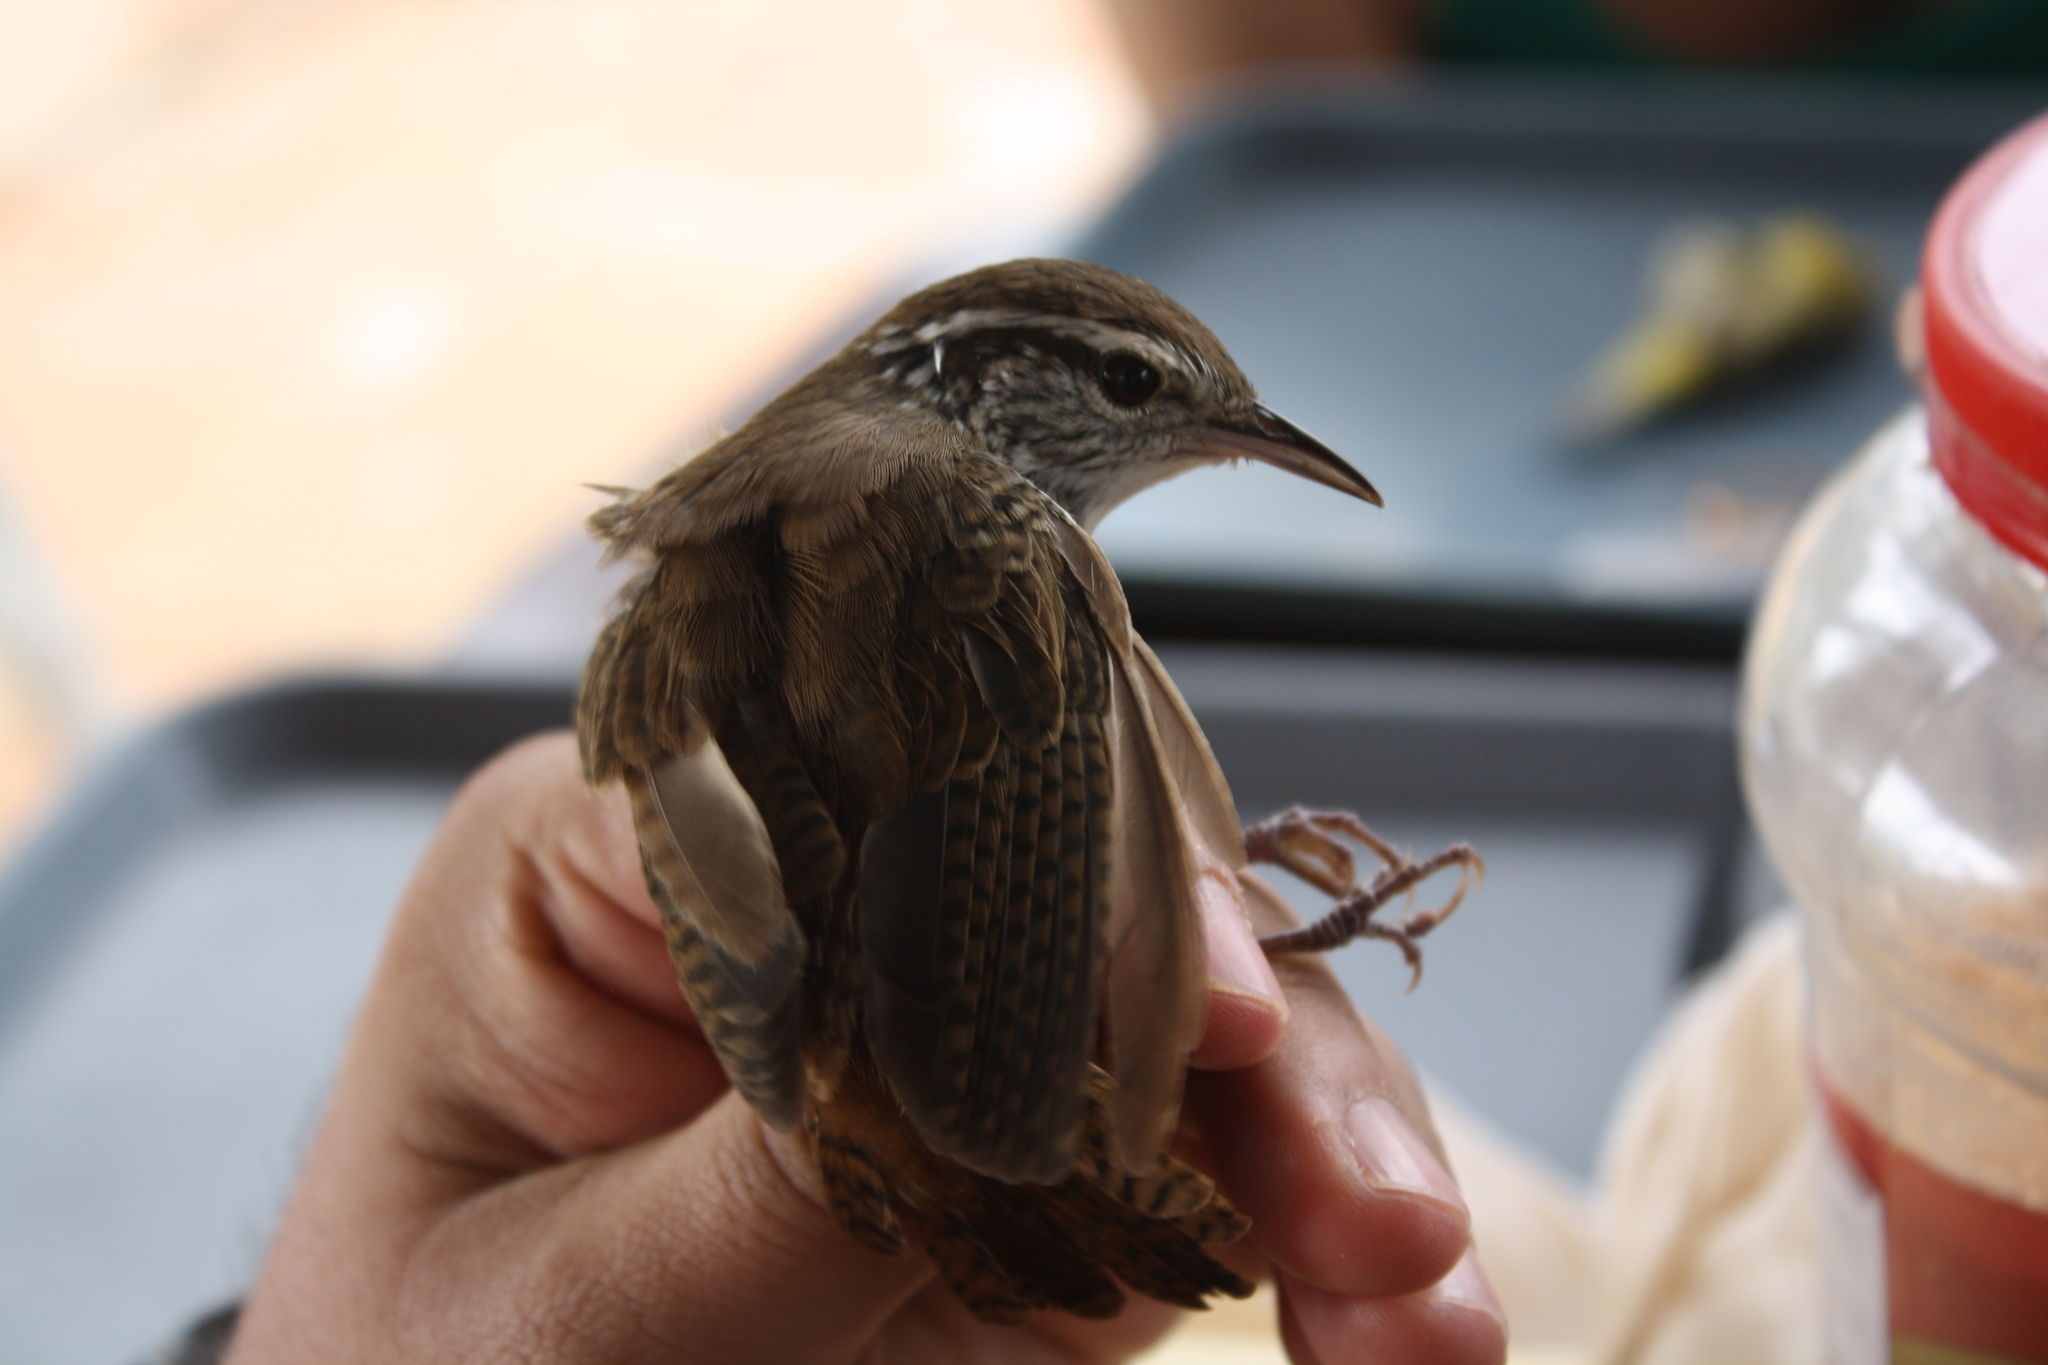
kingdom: Animalia
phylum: Chordata
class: Aves
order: Passeriformes
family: Troglodytidae
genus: Thryophilus
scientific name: Thryophilus sinaloa
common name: Sinaloa wren
